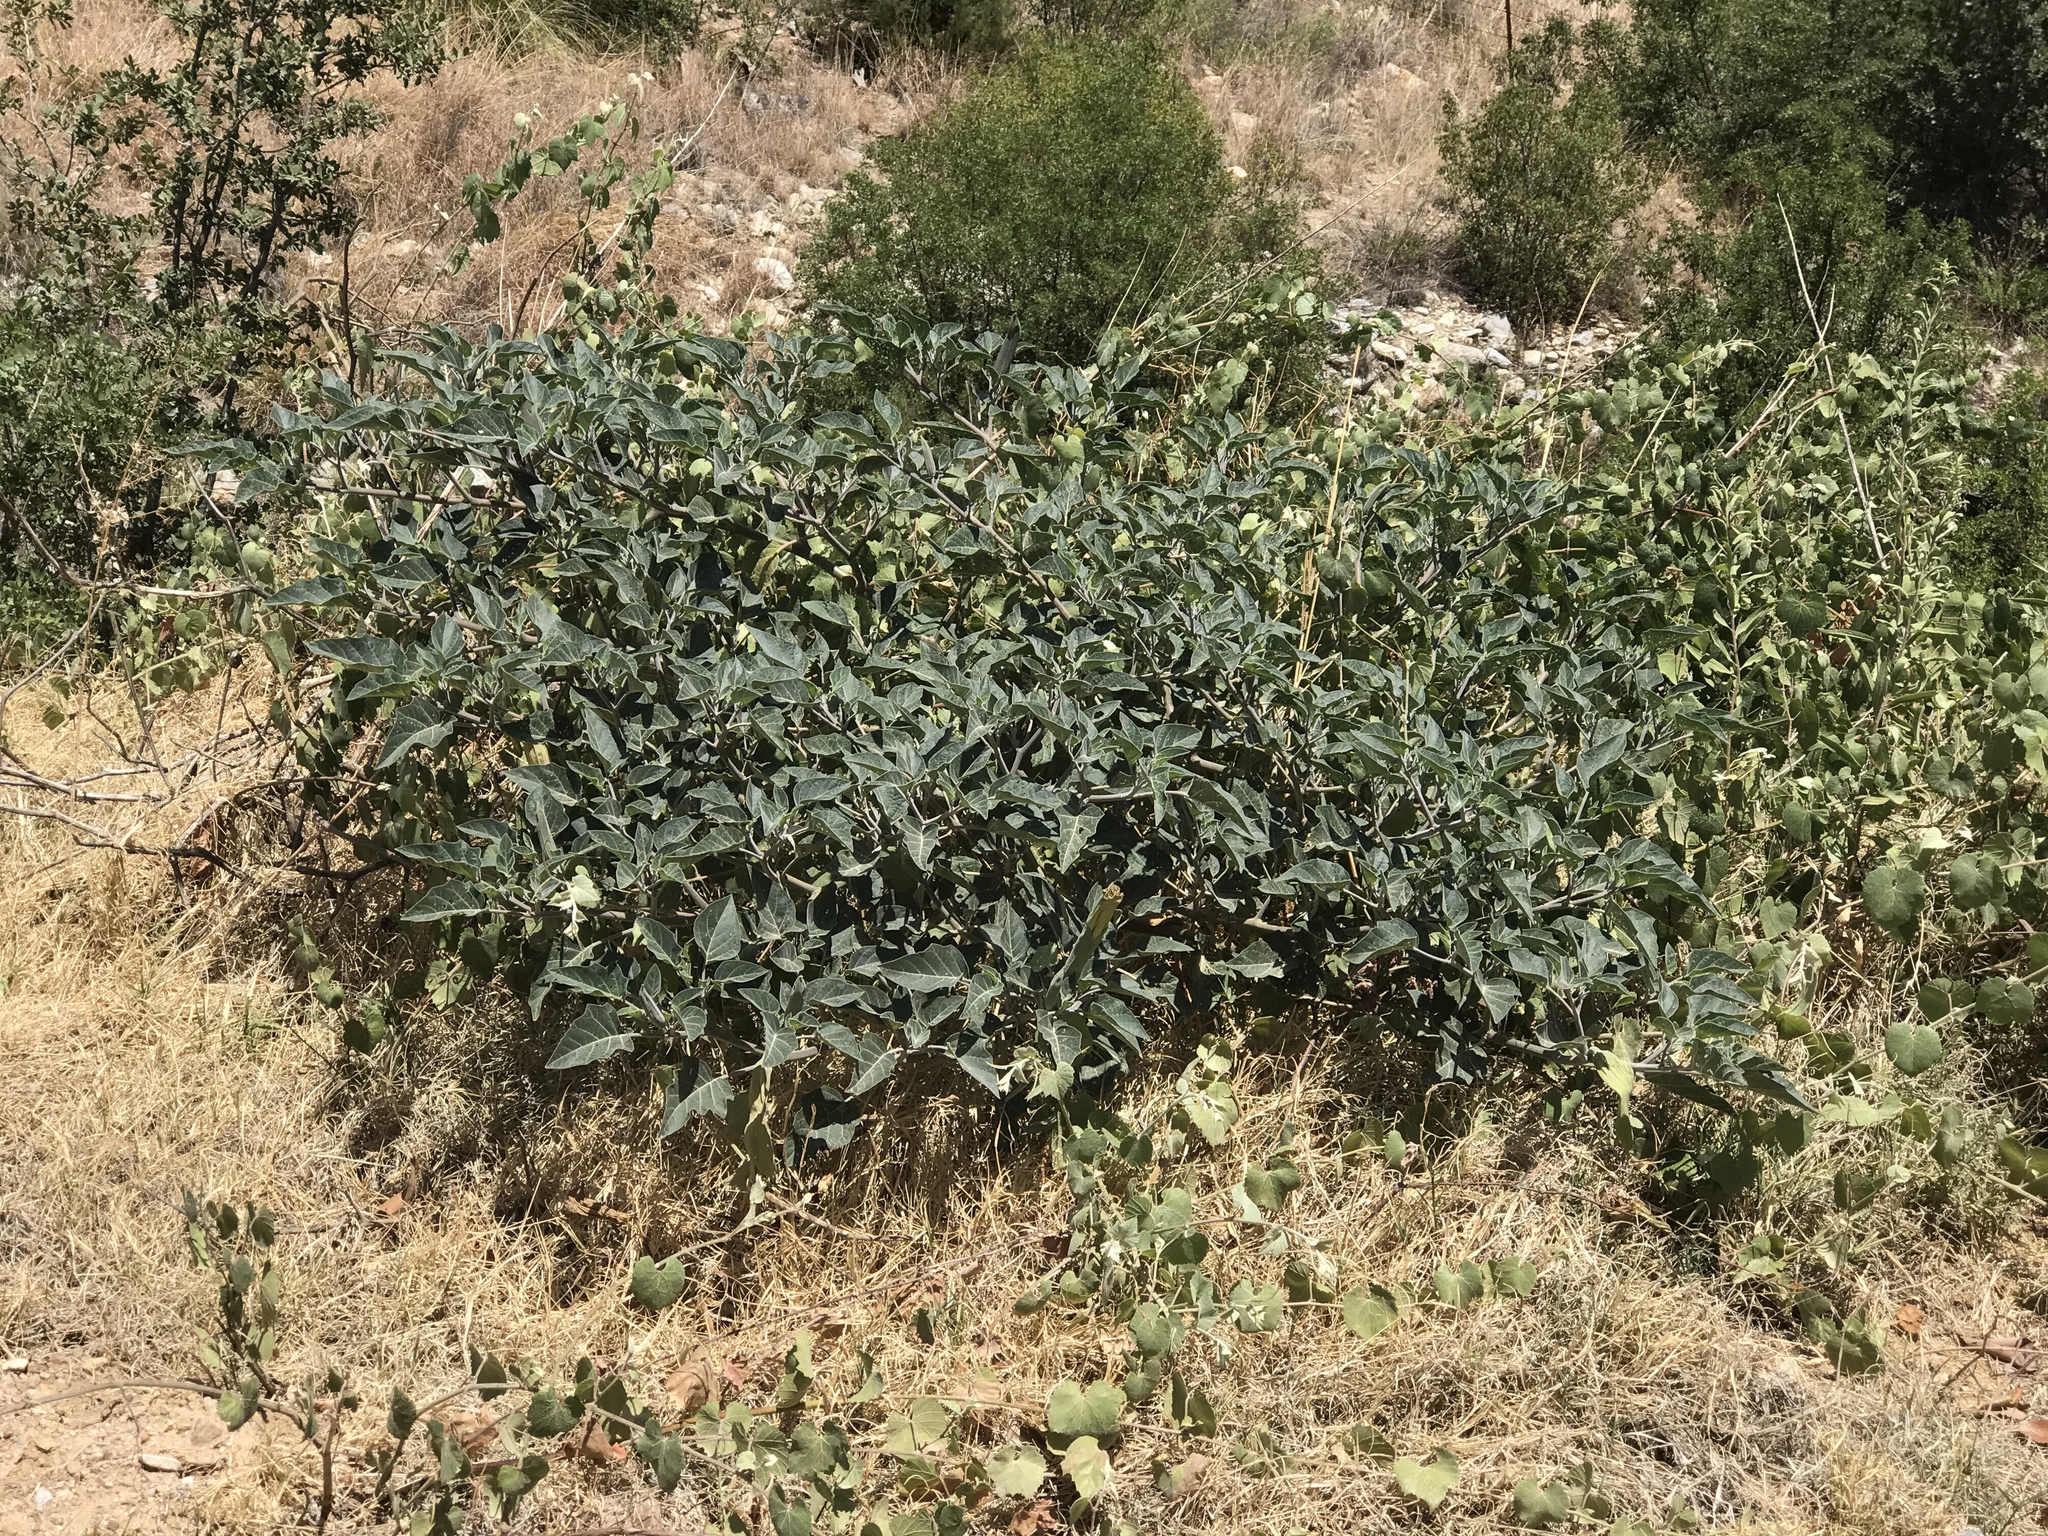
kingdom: Plantae
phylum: Tracheophyta
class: Magnoliopsida
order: Solanales
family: Solanaceae
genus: Datura
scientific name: Datura wrightii
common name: Sacred thorn-apple
